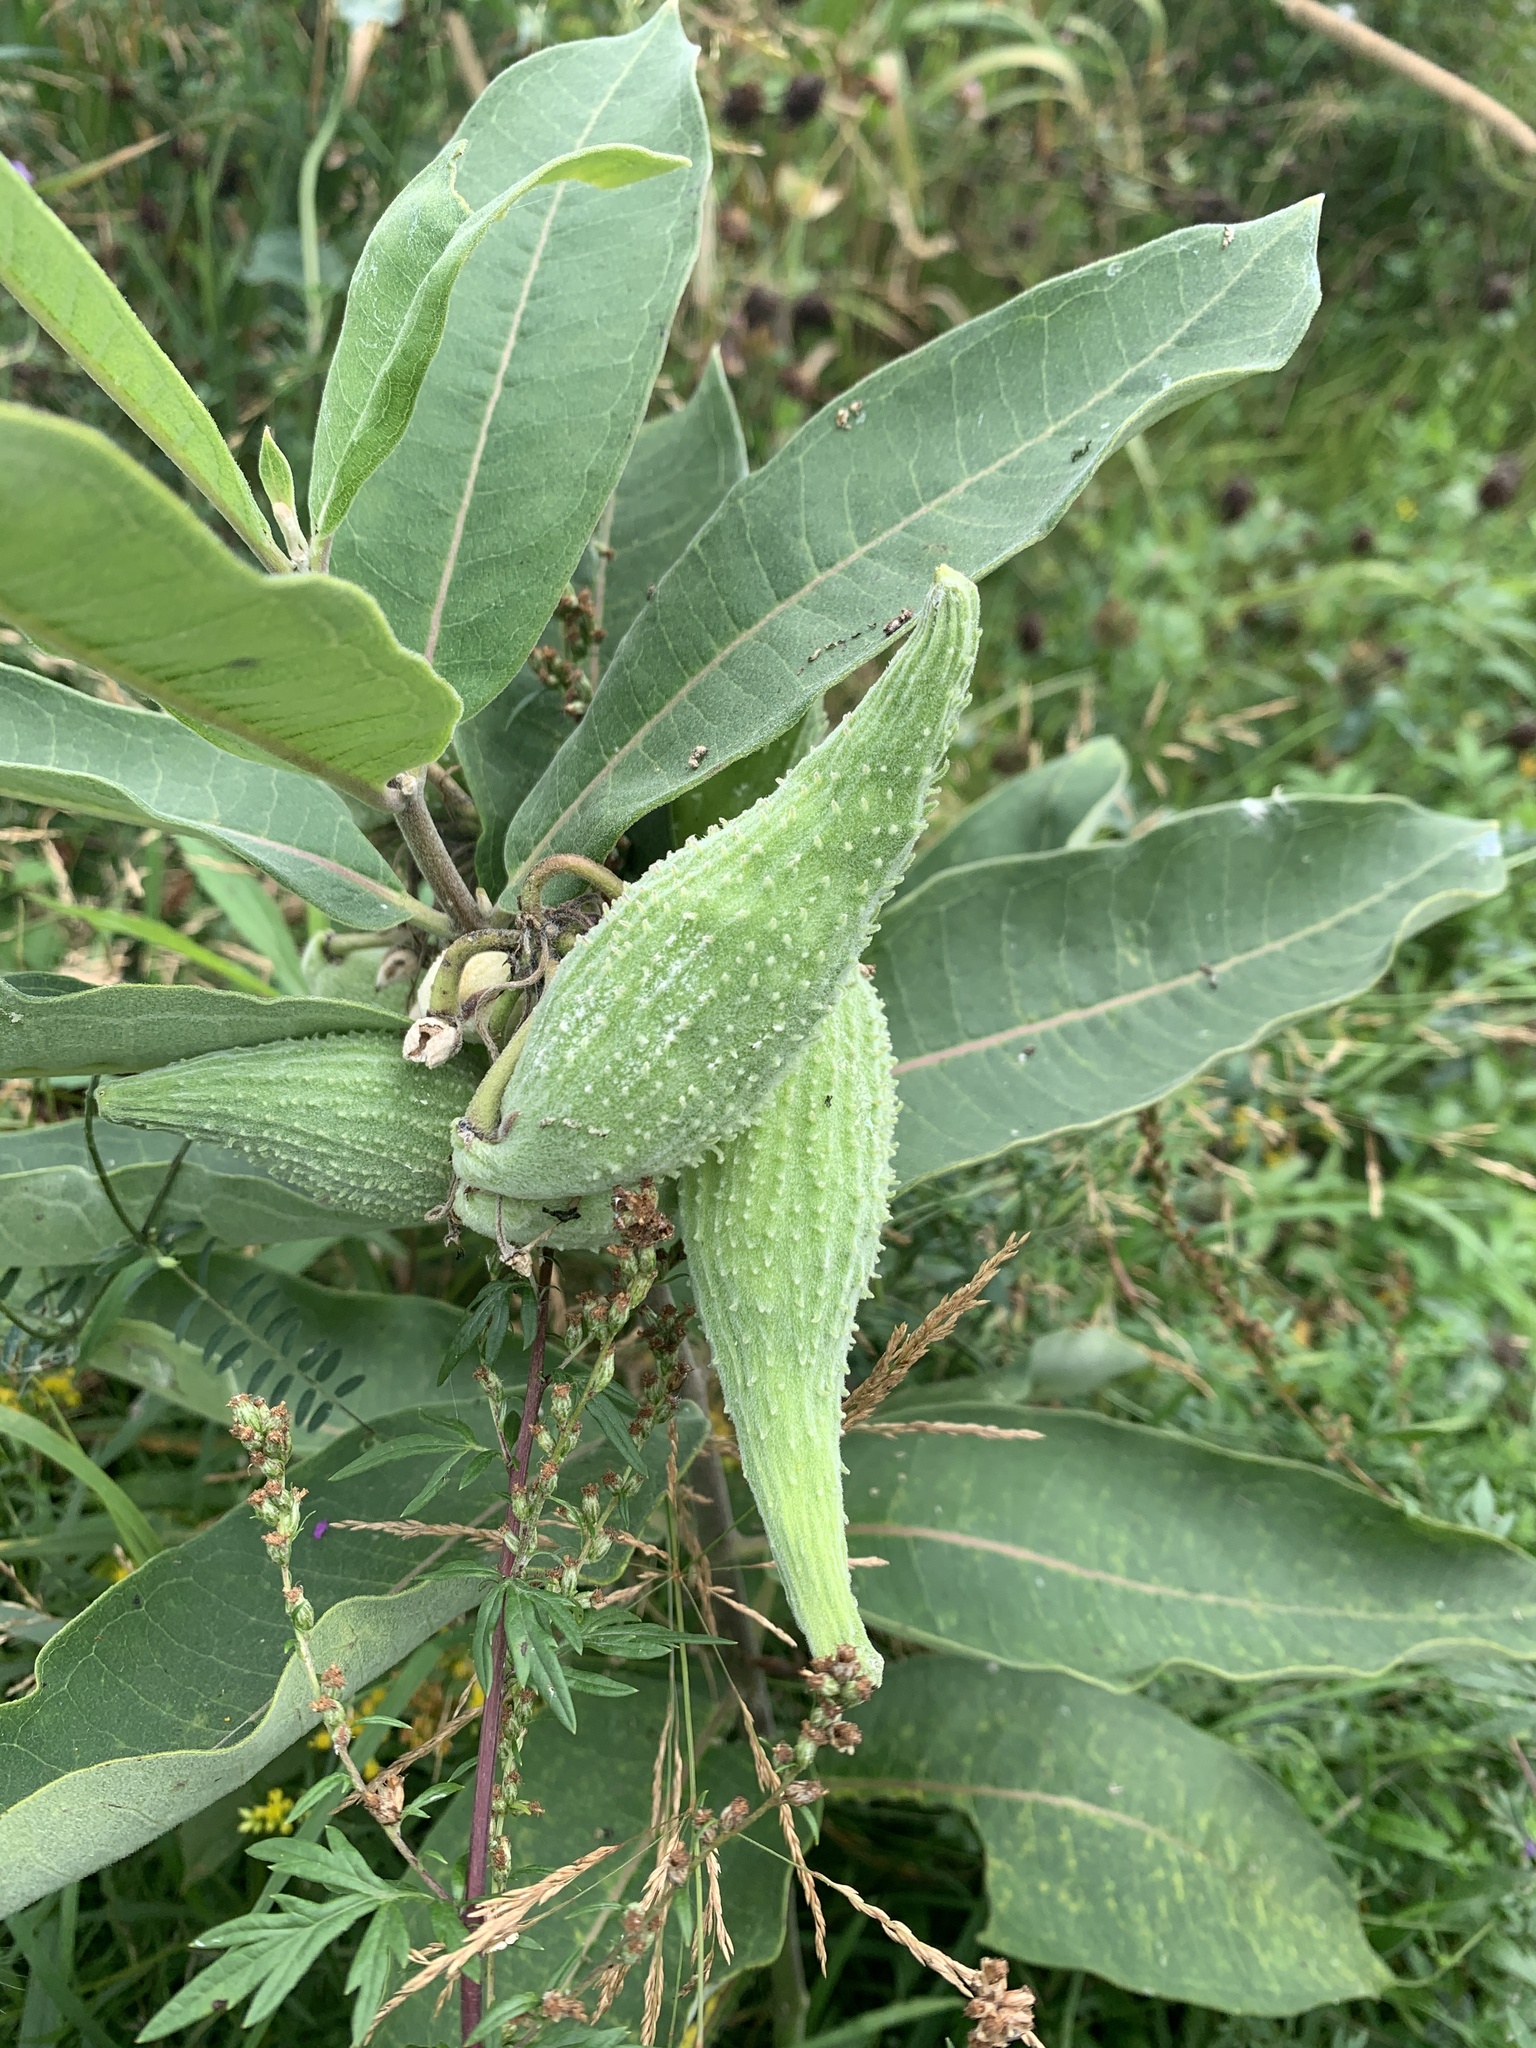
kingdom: Plantae
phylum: Tracheophyta
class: Magnoliopsida
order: Gentianales
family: Apocynaceae
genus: Asclepias
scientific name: Asclepias syriaca
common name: Common milkweed
